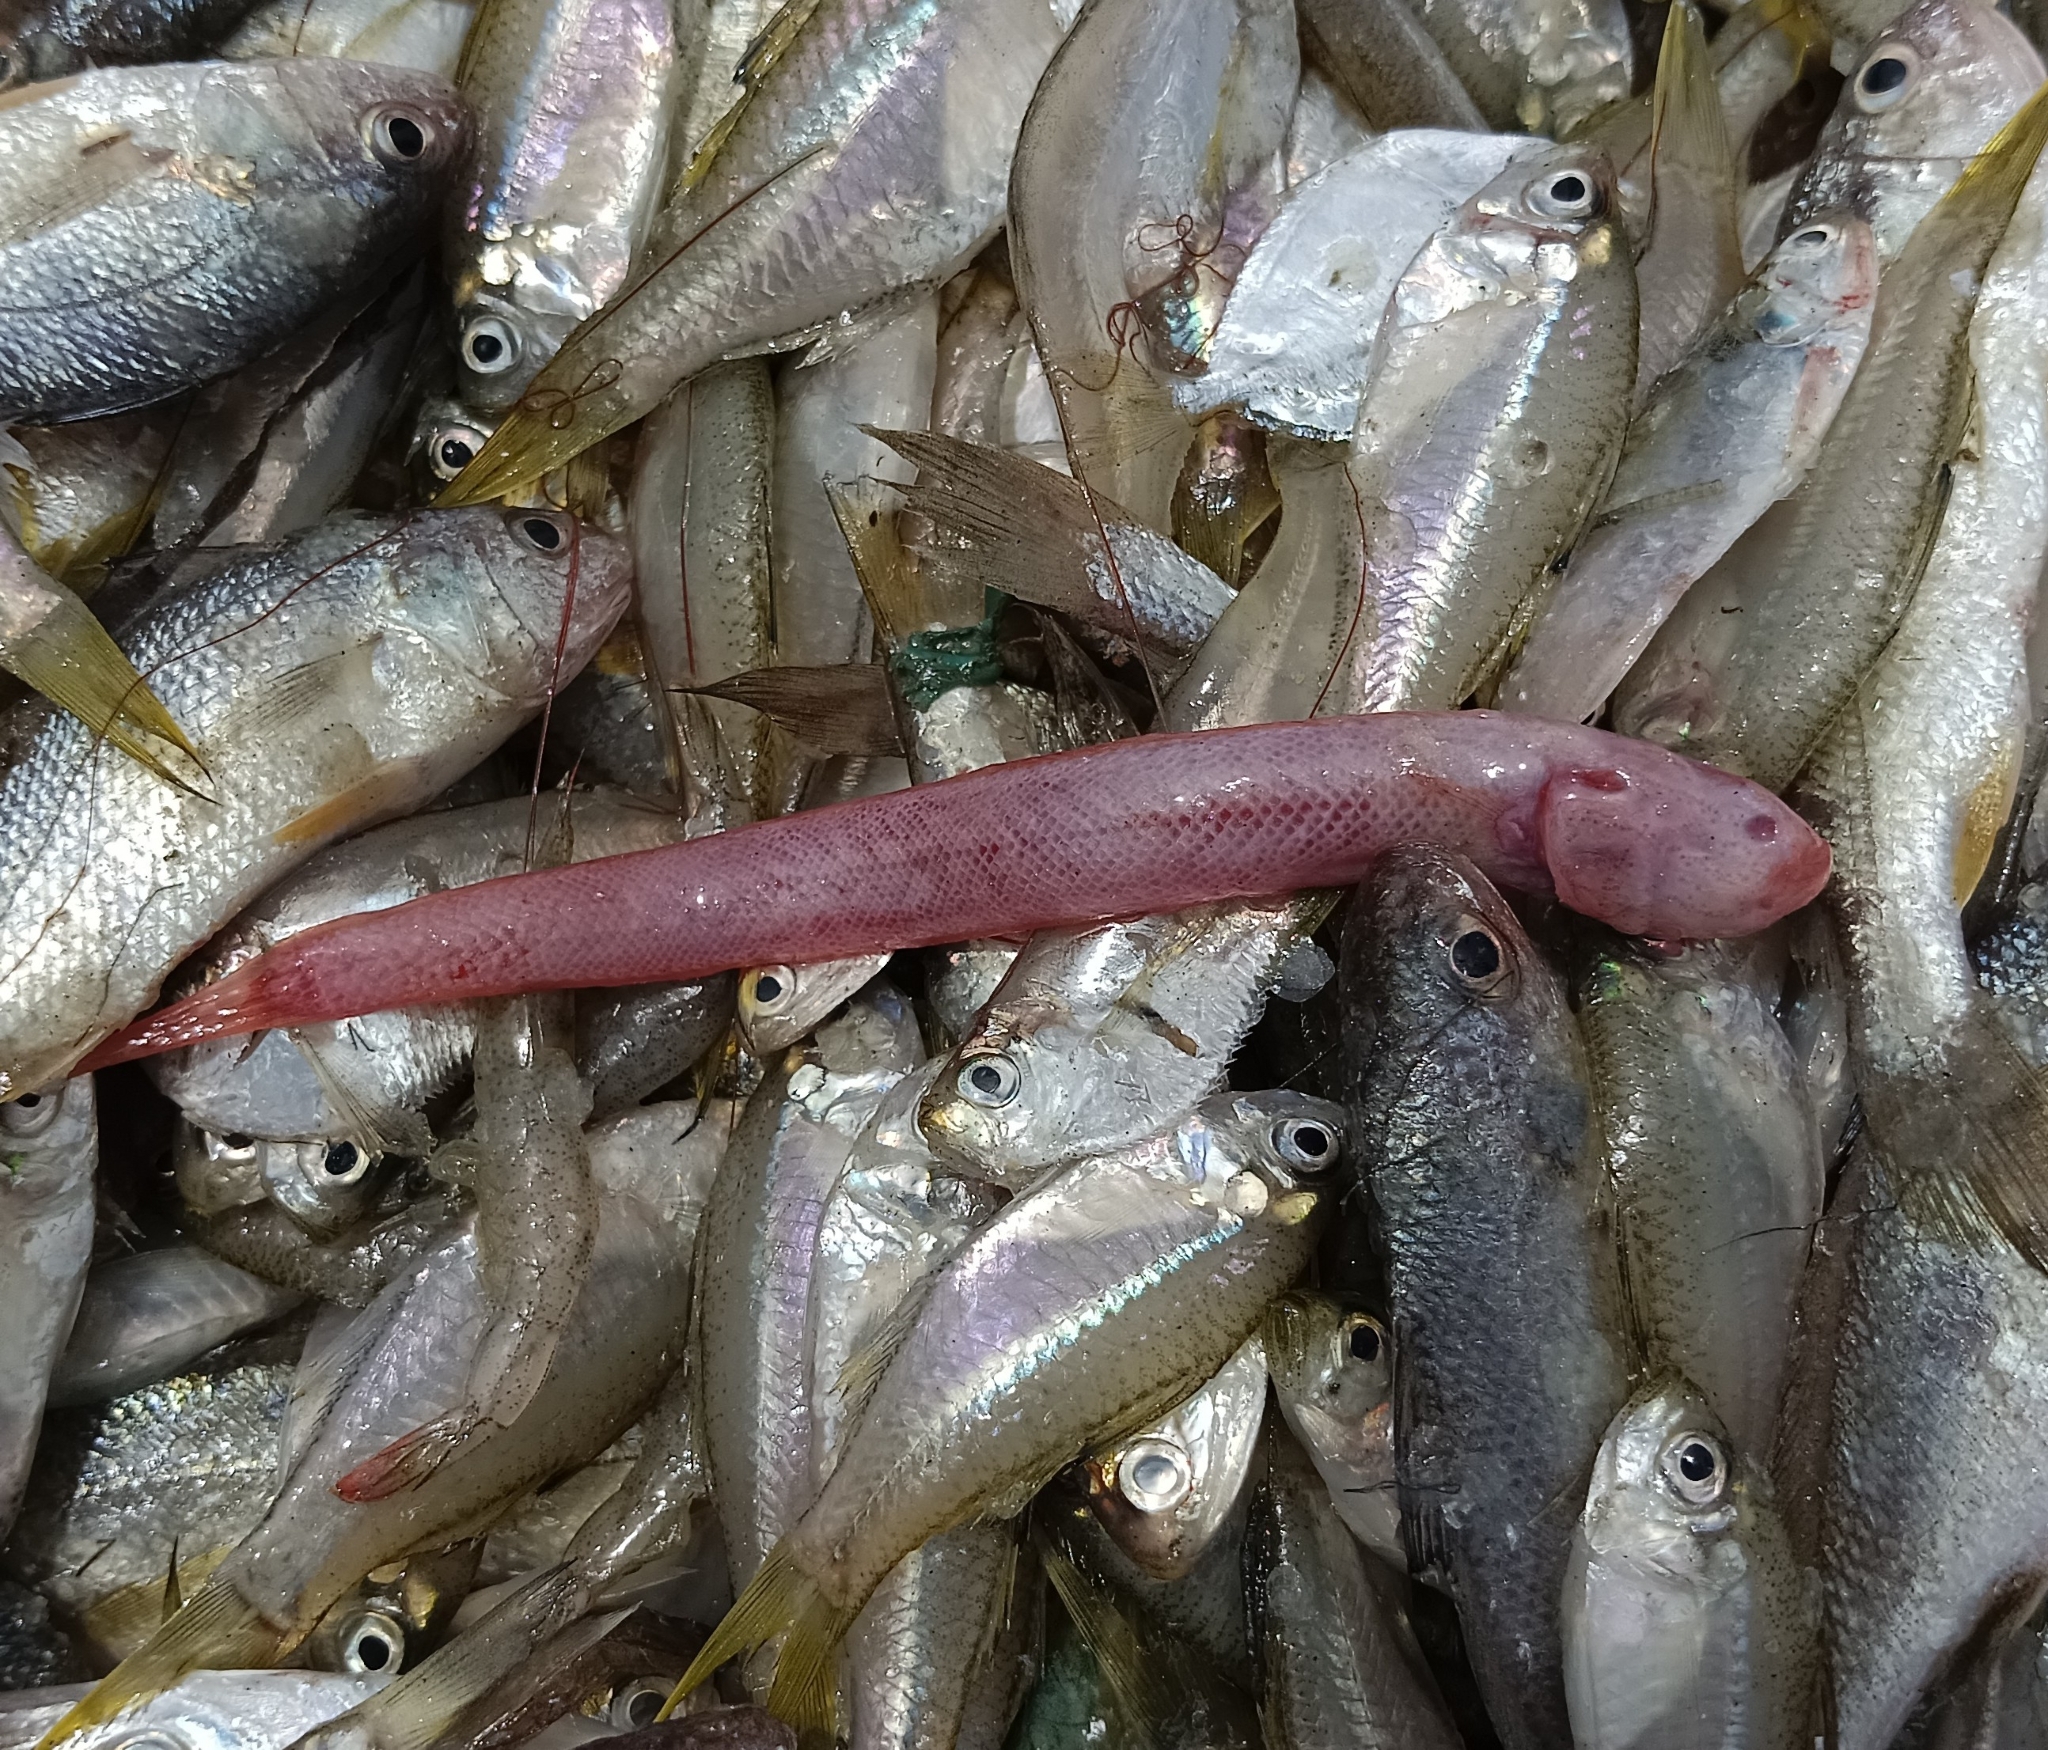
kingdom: Animalia
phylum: Chordata
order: Perciformes
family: Gobiidae
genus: Trypauchen
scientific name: Trypauchen vagina
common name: Burrowing goby
